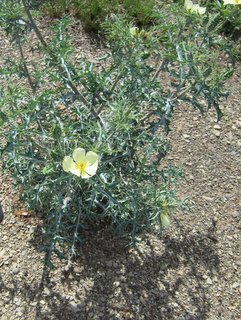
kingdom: Plantae
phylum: Tracheophyta
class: Magnoliopsida
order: Ranunculales
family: Papaveraceae
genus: Argemone
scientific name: Argemone ochroleuca
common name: White-flower mexican-poppy
